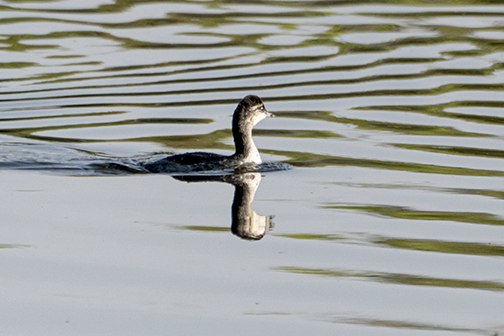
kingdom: Animalia
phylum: Chordata
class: Aves
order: Podicipediformes
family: Podicipedidae
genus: Podilymbus
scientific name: Podilymbus podiceps
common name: Pied-billed grebe
